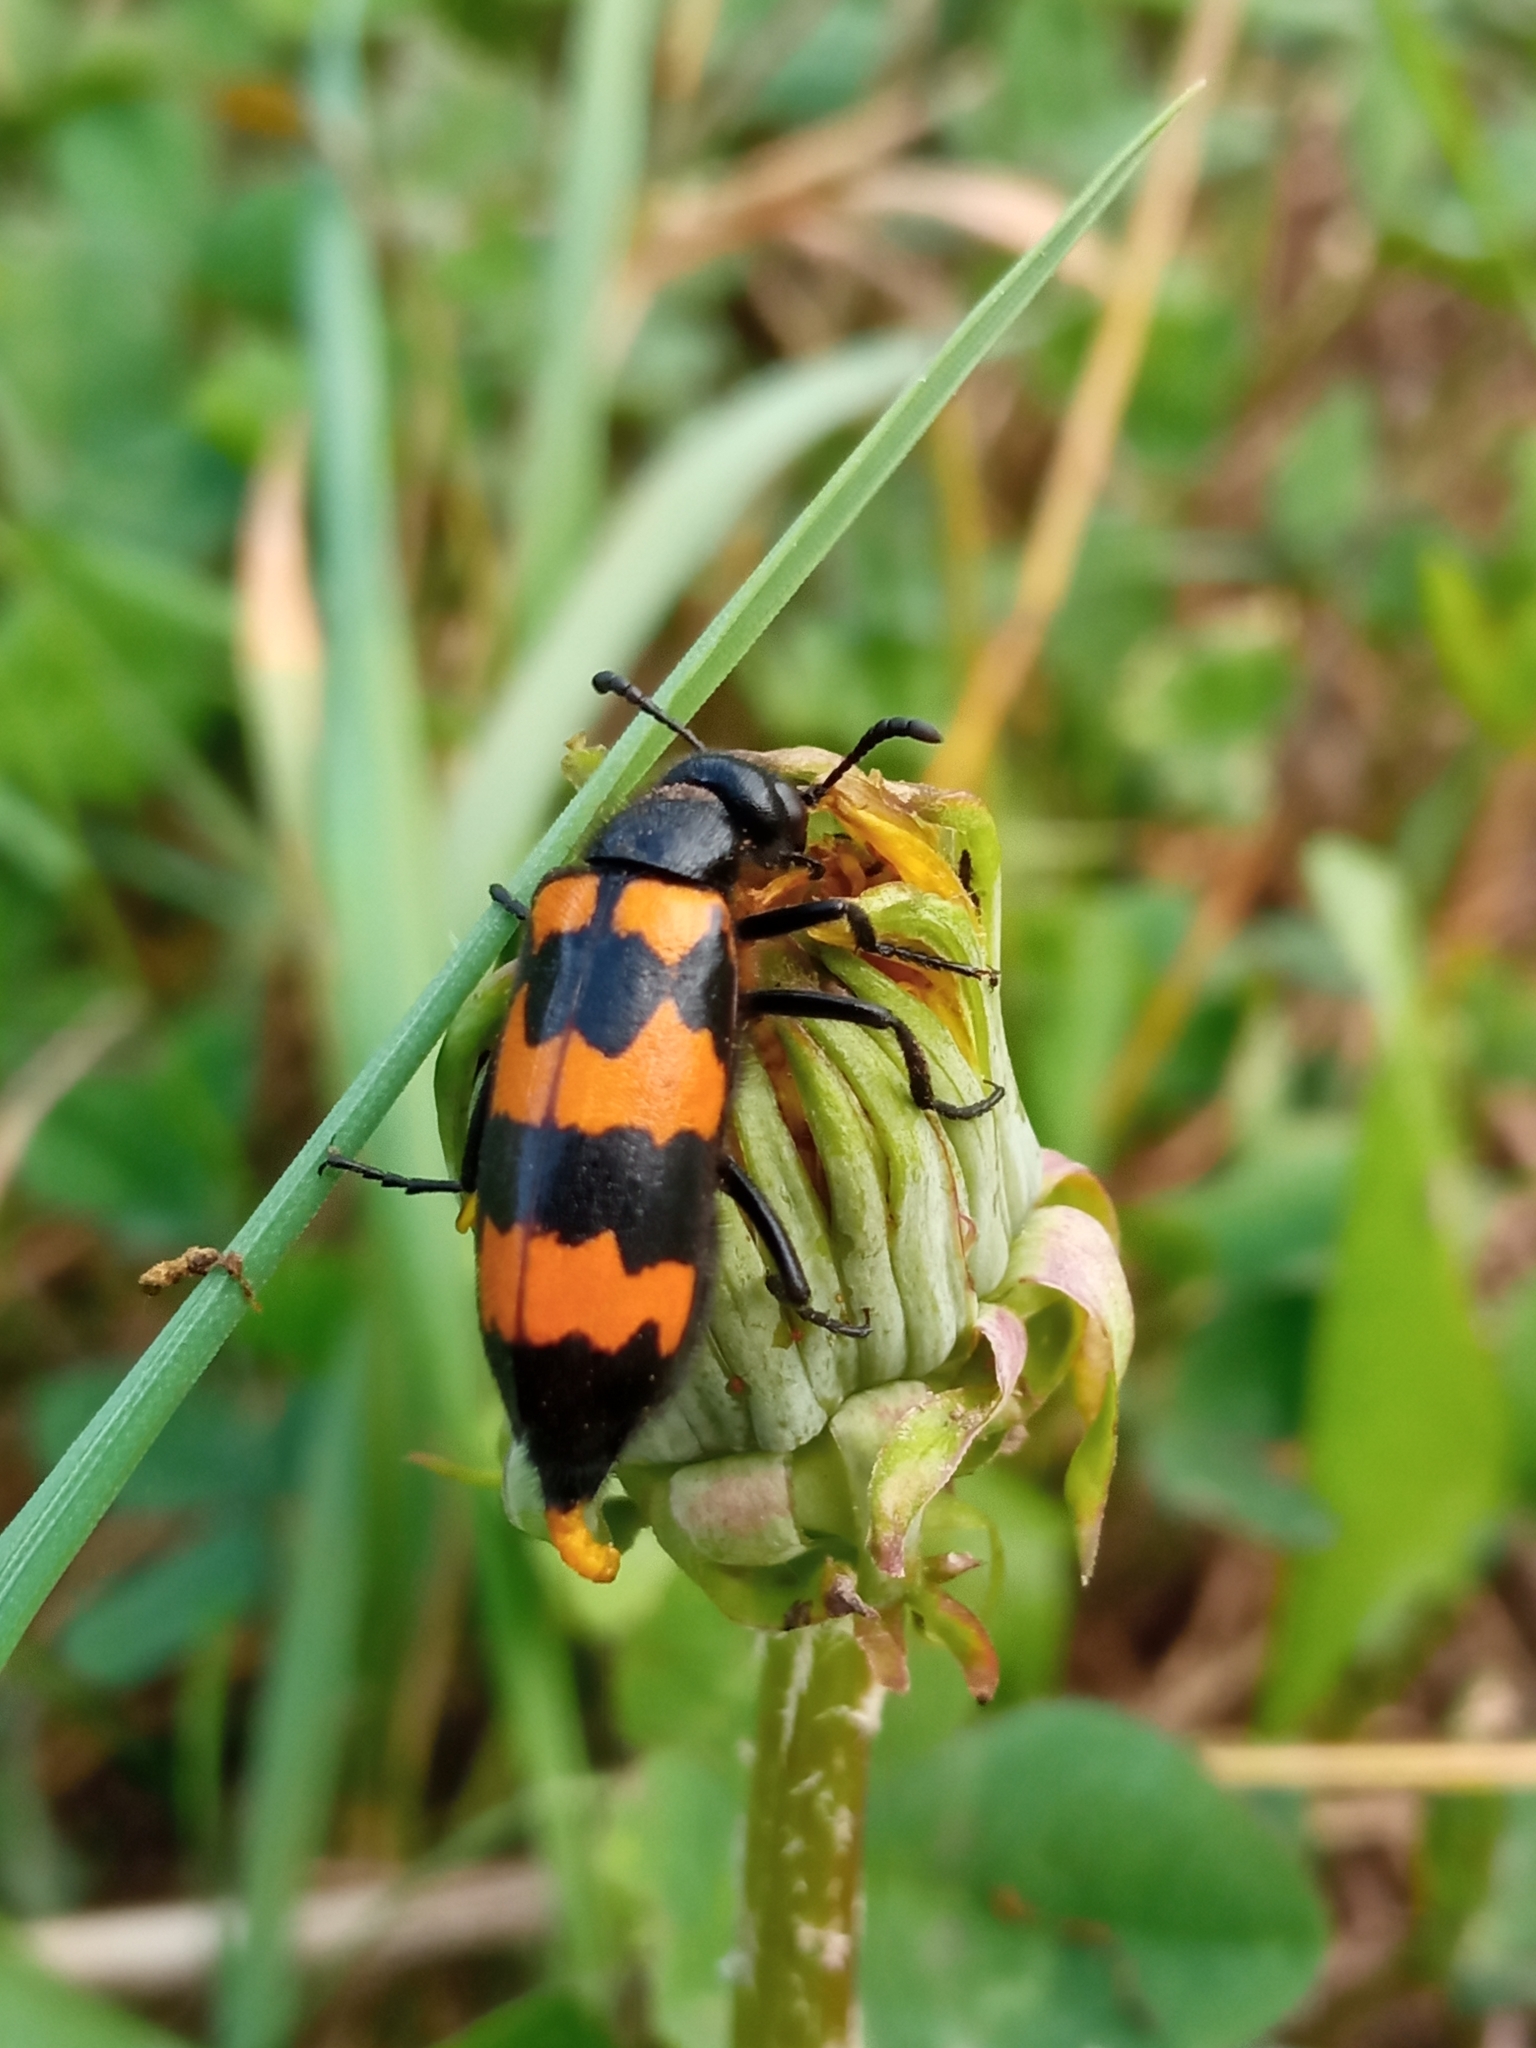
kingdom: Animalia
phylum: Arthropoda
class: Insecta
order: Coleoptera
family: Meloidae
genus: Mylabris
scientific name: Mylabris variabilis
